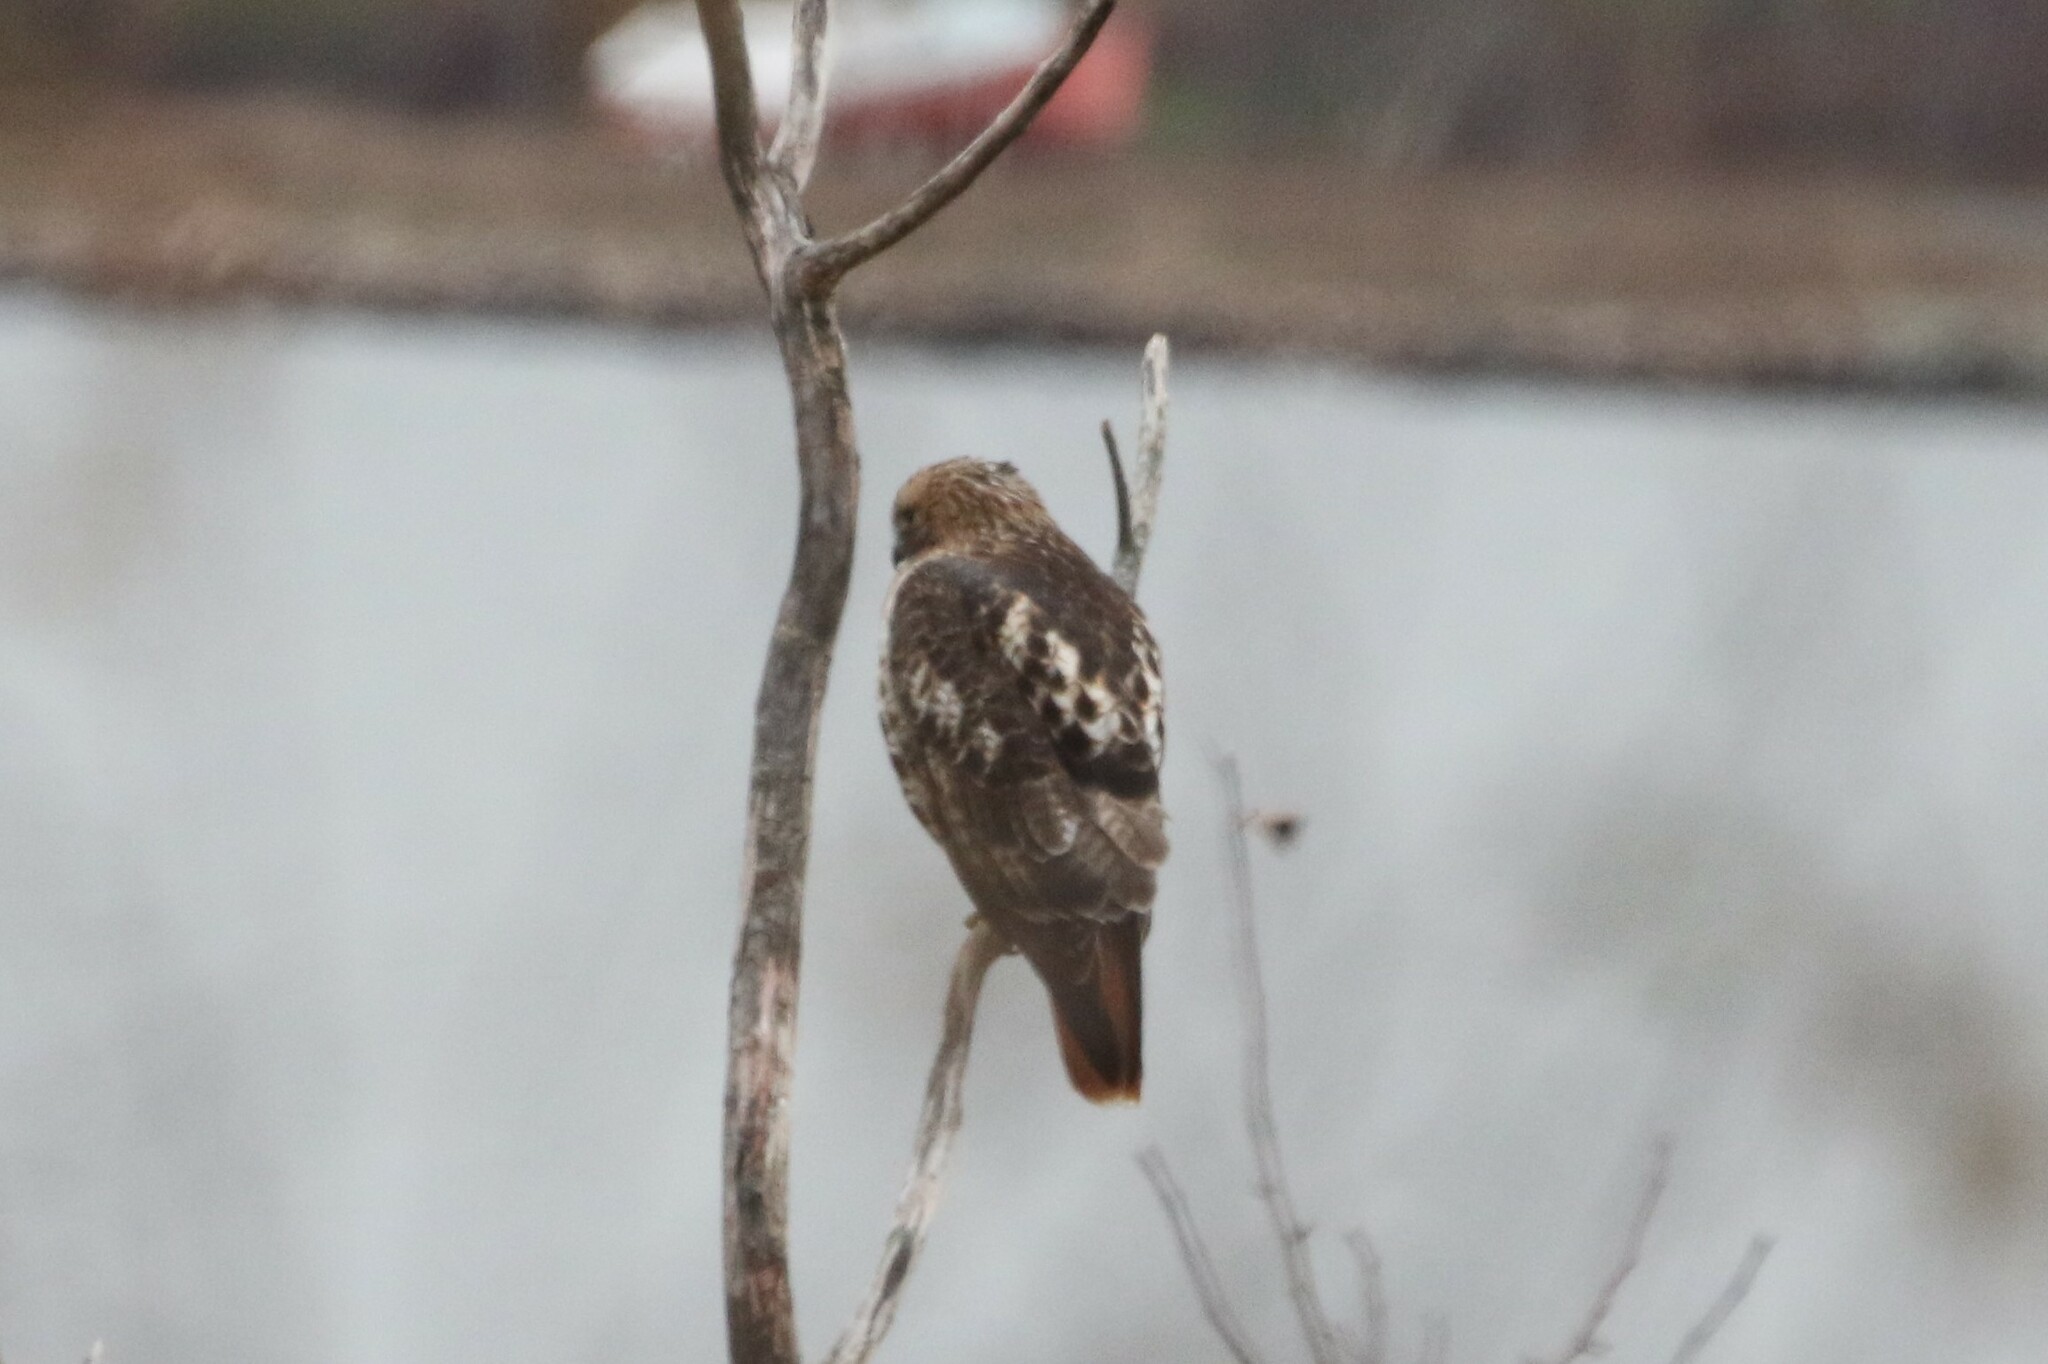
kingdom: Animalia
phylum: Chordata
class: Aves
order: Accipitriformes
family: Accipitridae
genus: Buteo
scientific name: Buteo jamaicensis
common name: Red-tailed hawk
